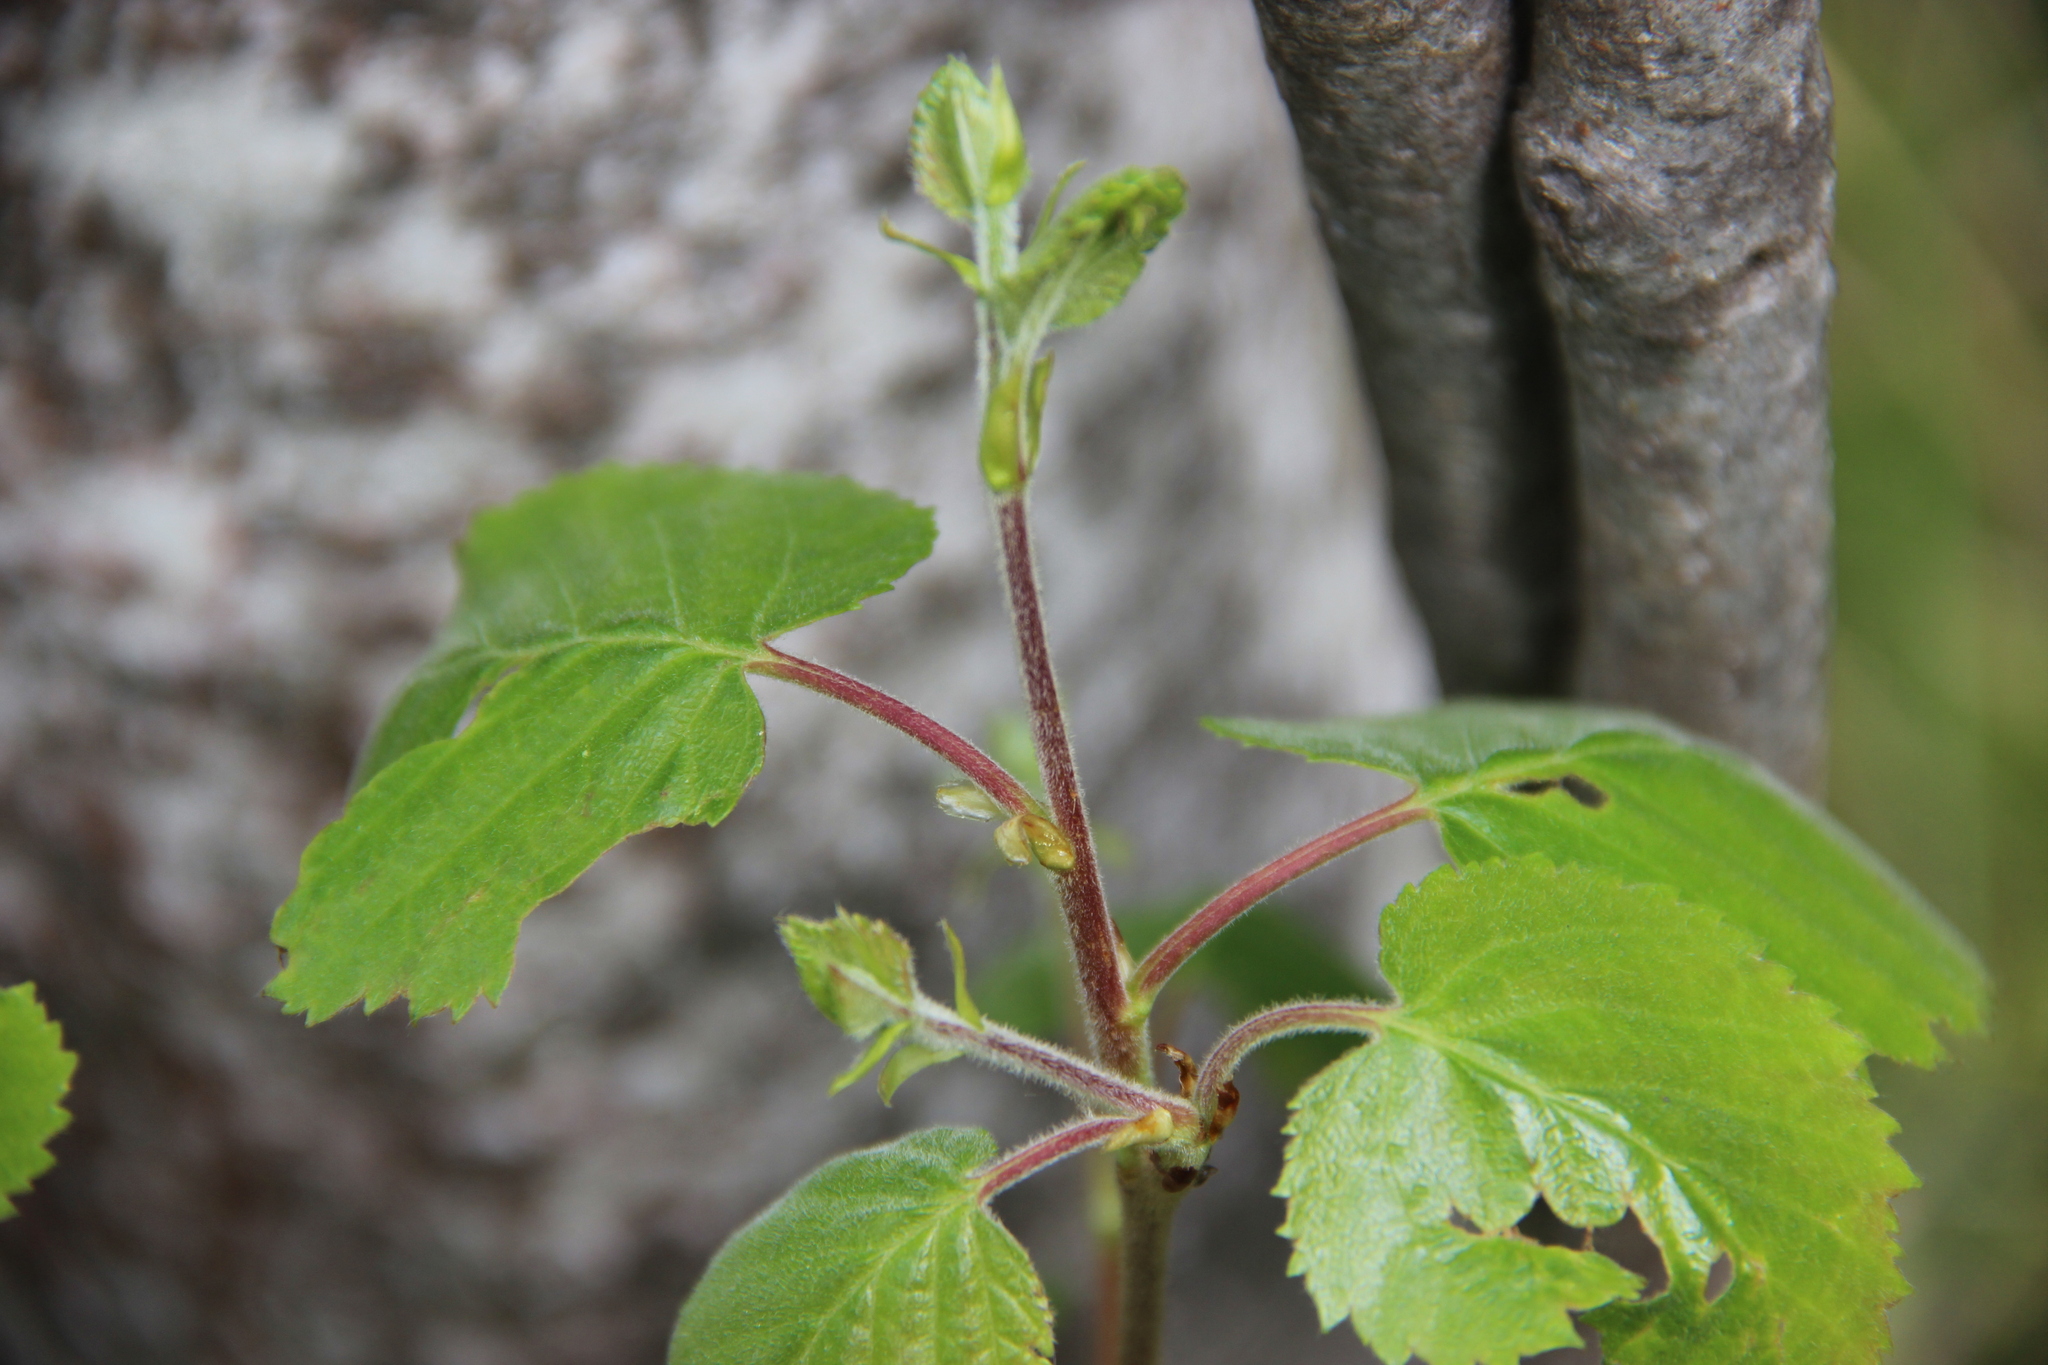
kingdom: Plantae
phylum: Tracheophyta
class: Magnoliopsida
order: Fagales
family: Betulaceae
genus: Betula
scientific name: Betula pubescens
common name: Downy birch
